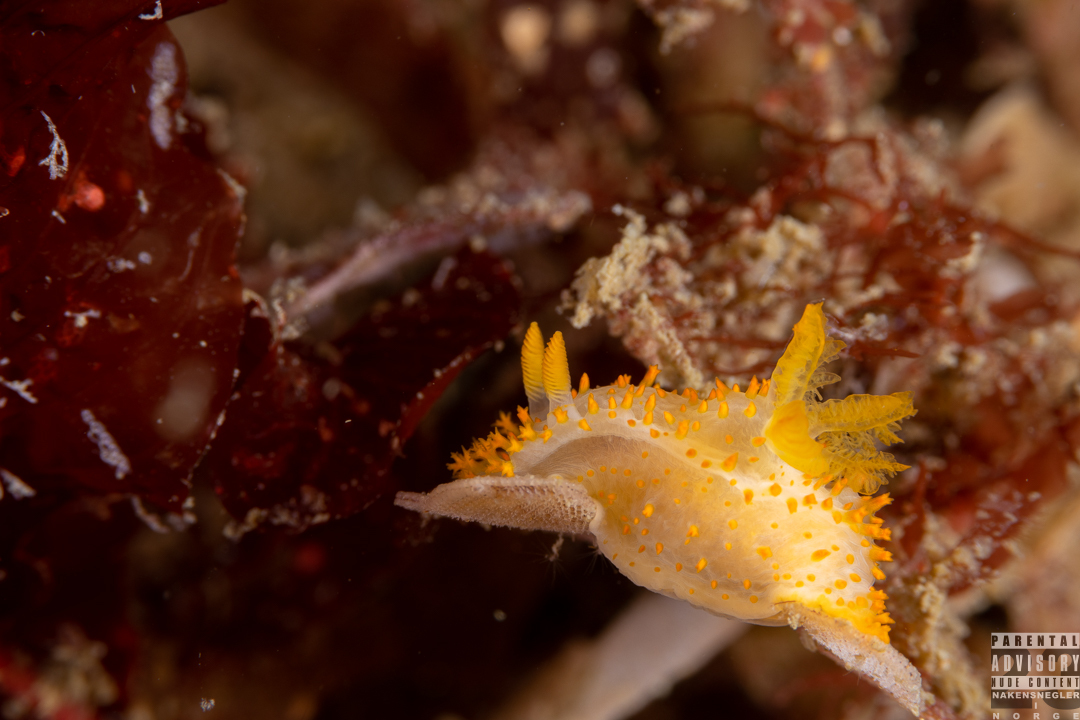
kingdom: Animalia
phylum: Mollusca
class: Gastropoda
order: Nudibranchia
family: Polyceridae
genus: Crimora
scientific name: Crimora papillata
